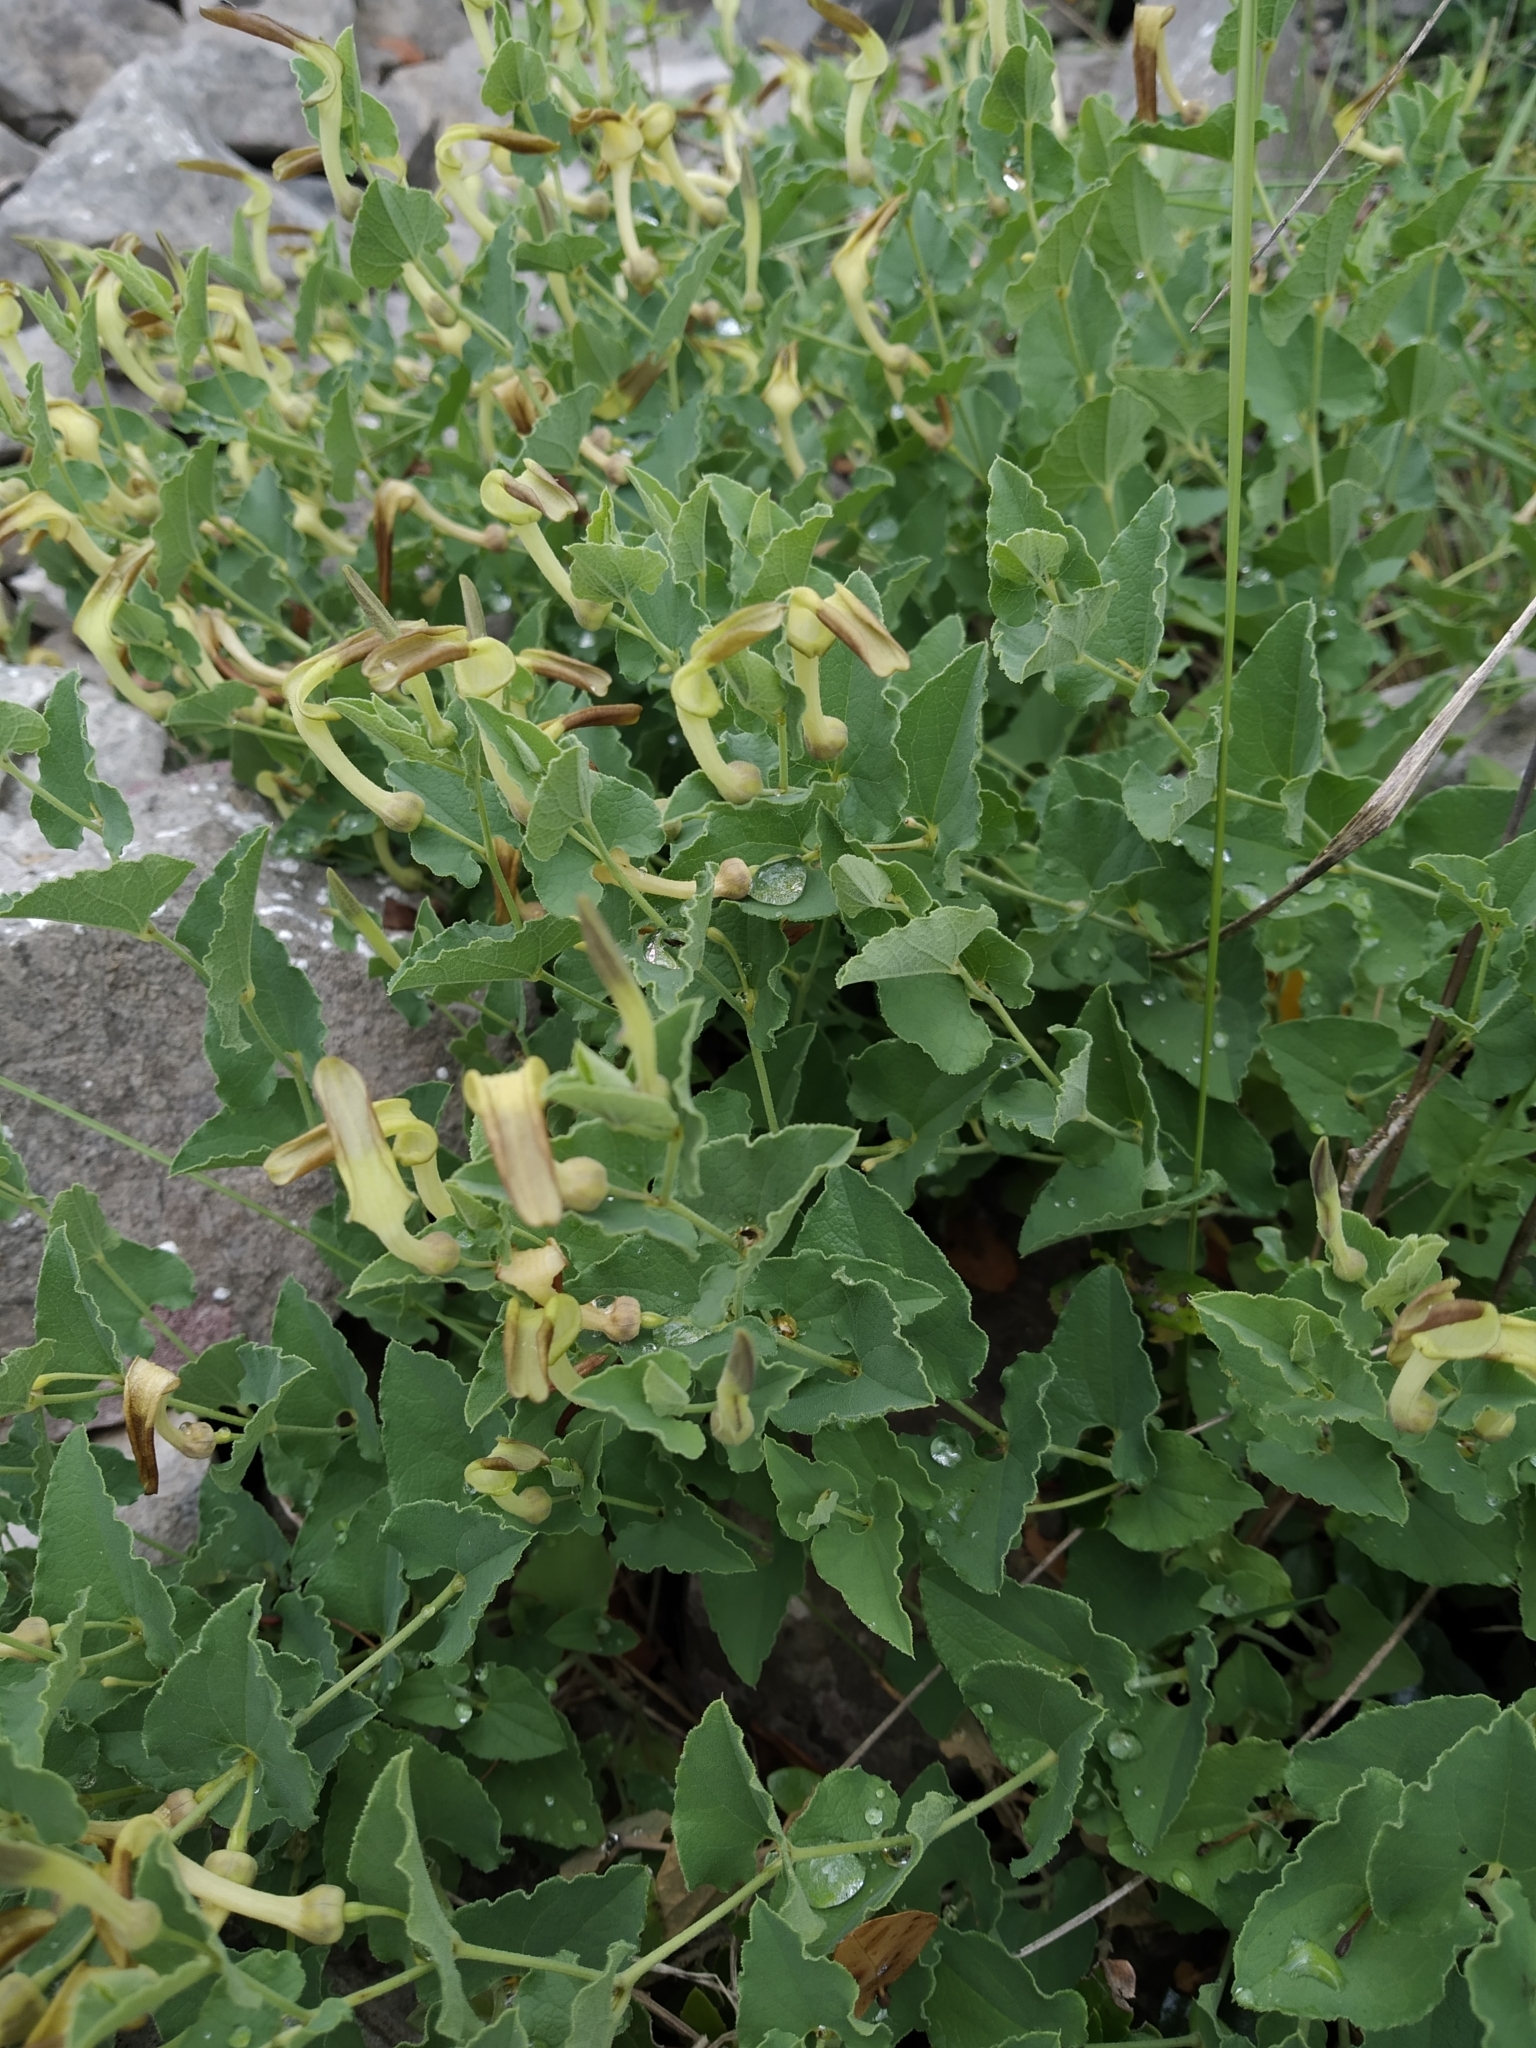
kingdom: Plantae
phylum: Tracheophyta
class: Magnoliopsida
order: Piperales
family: Aristolochiaceae
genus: Aristolochia
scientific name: Aristolochia pistolochia
